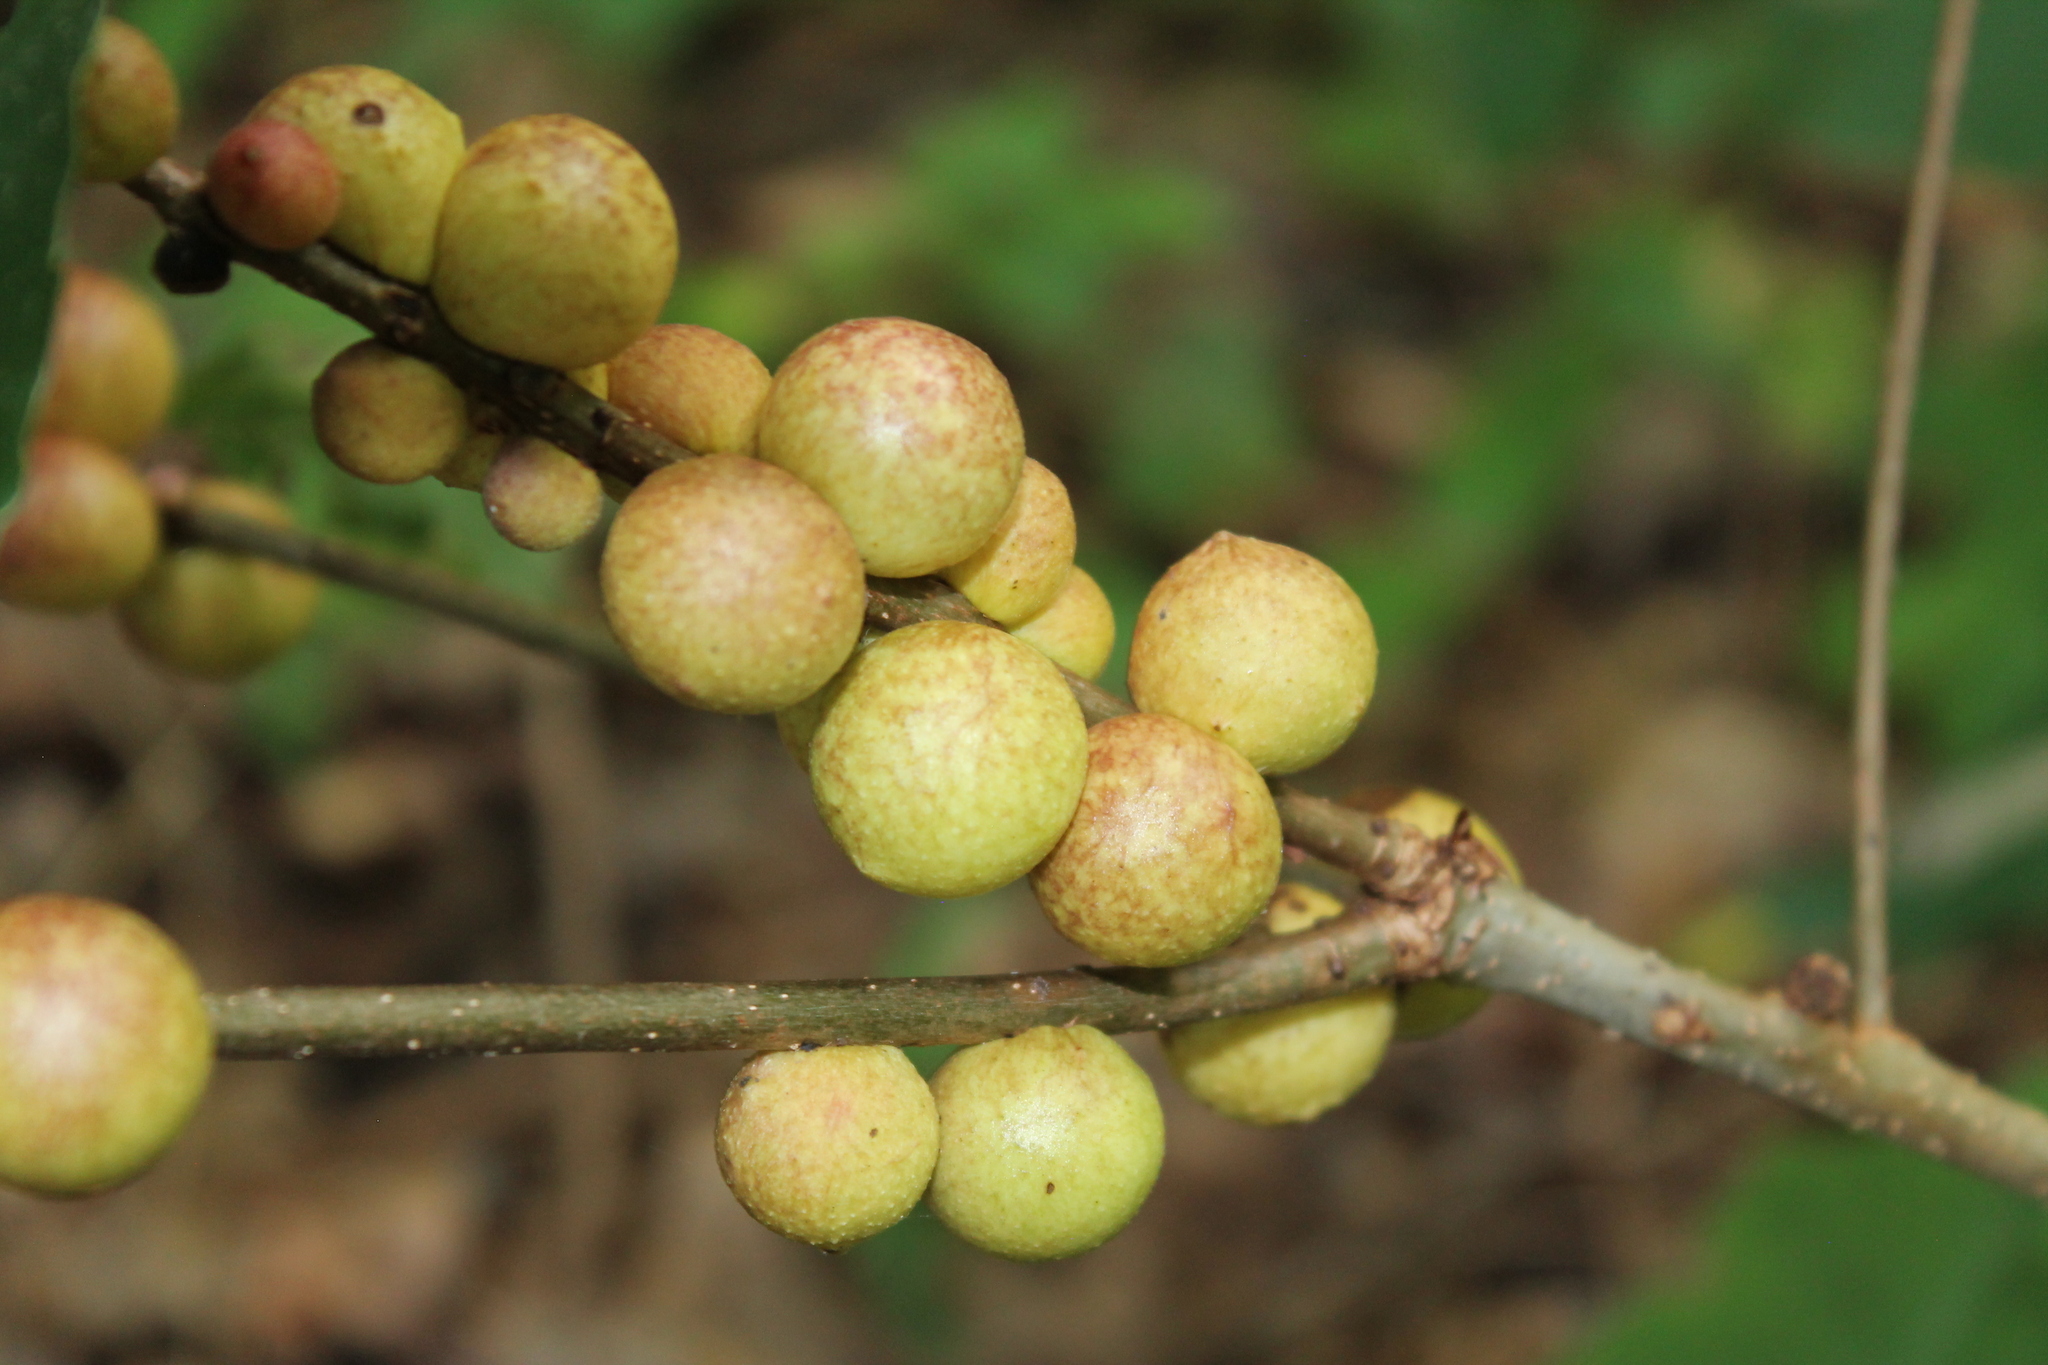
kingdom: Animalia
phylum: Arthropoda
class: Insecta
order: Hymenoptera
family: Cynipidae
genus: Disholcaspis
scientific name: Disholcaspis
